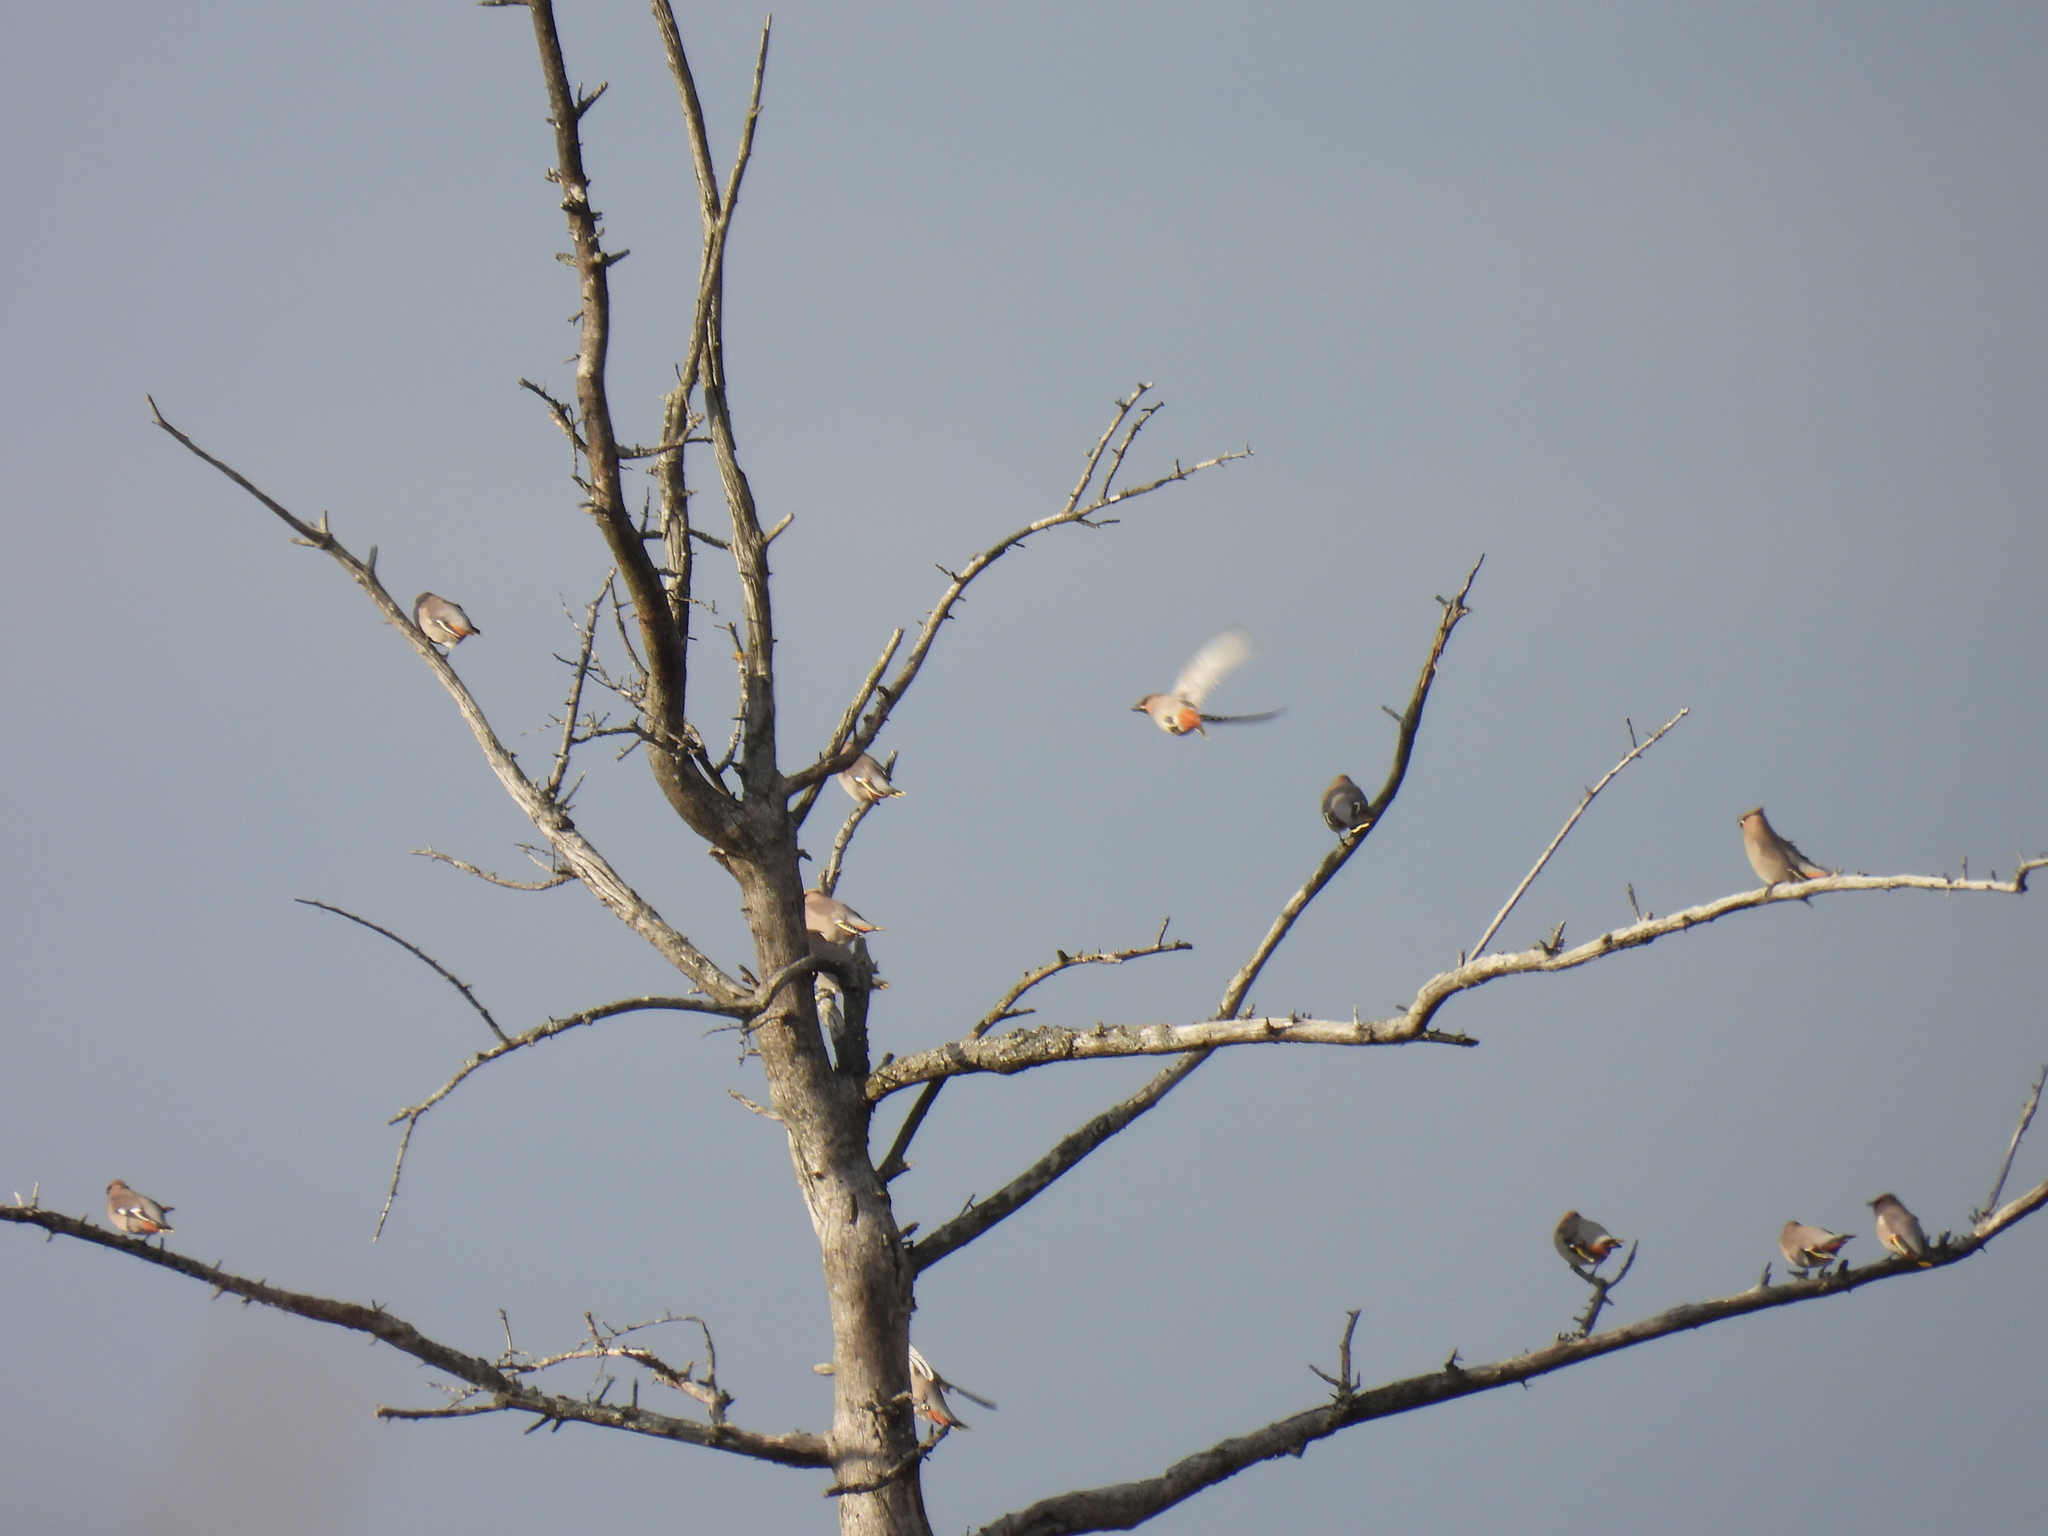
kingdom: Animalia
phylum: Chordata
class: Aves
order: Passeriformes
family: Bombycillidae
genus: Bombycilla
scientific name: Bombycilla garrulus
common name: Bohemian waxwing
